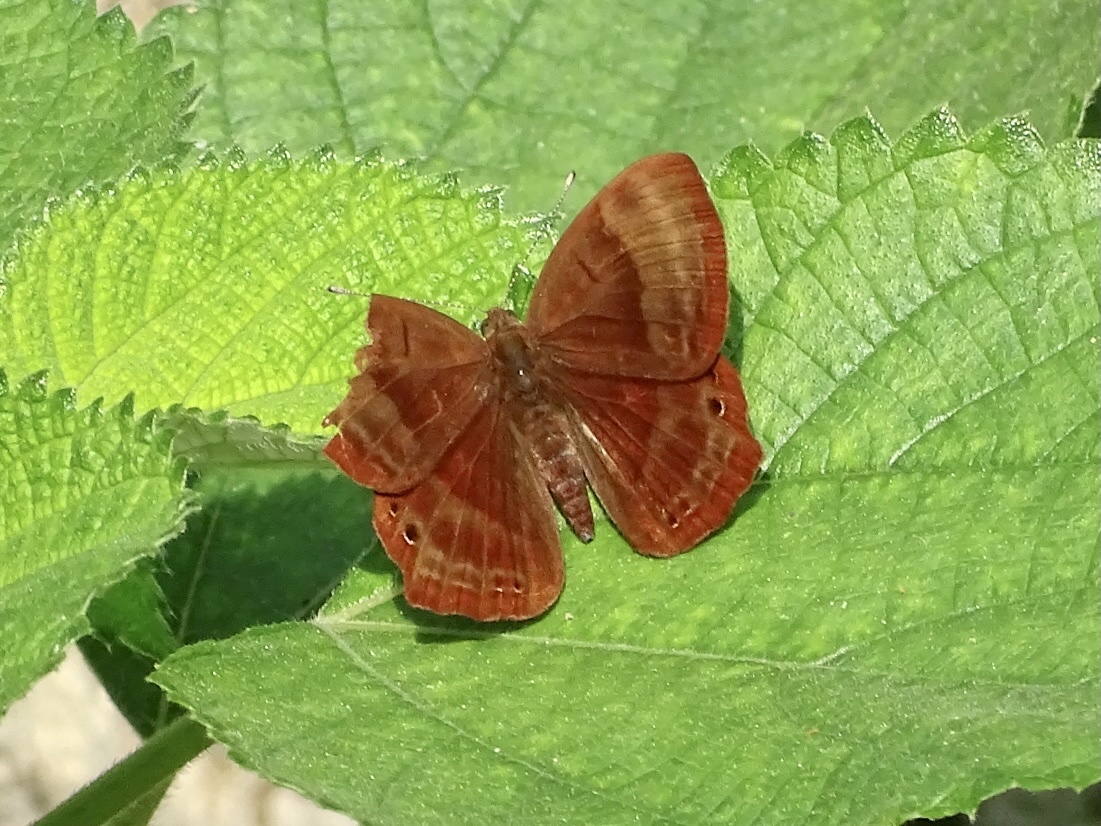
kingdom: Animalia
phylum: Arthropoda
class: Insecta
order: Lepidoptera
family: Lycaenidae
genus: Abisara
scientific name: Abisara echeria
